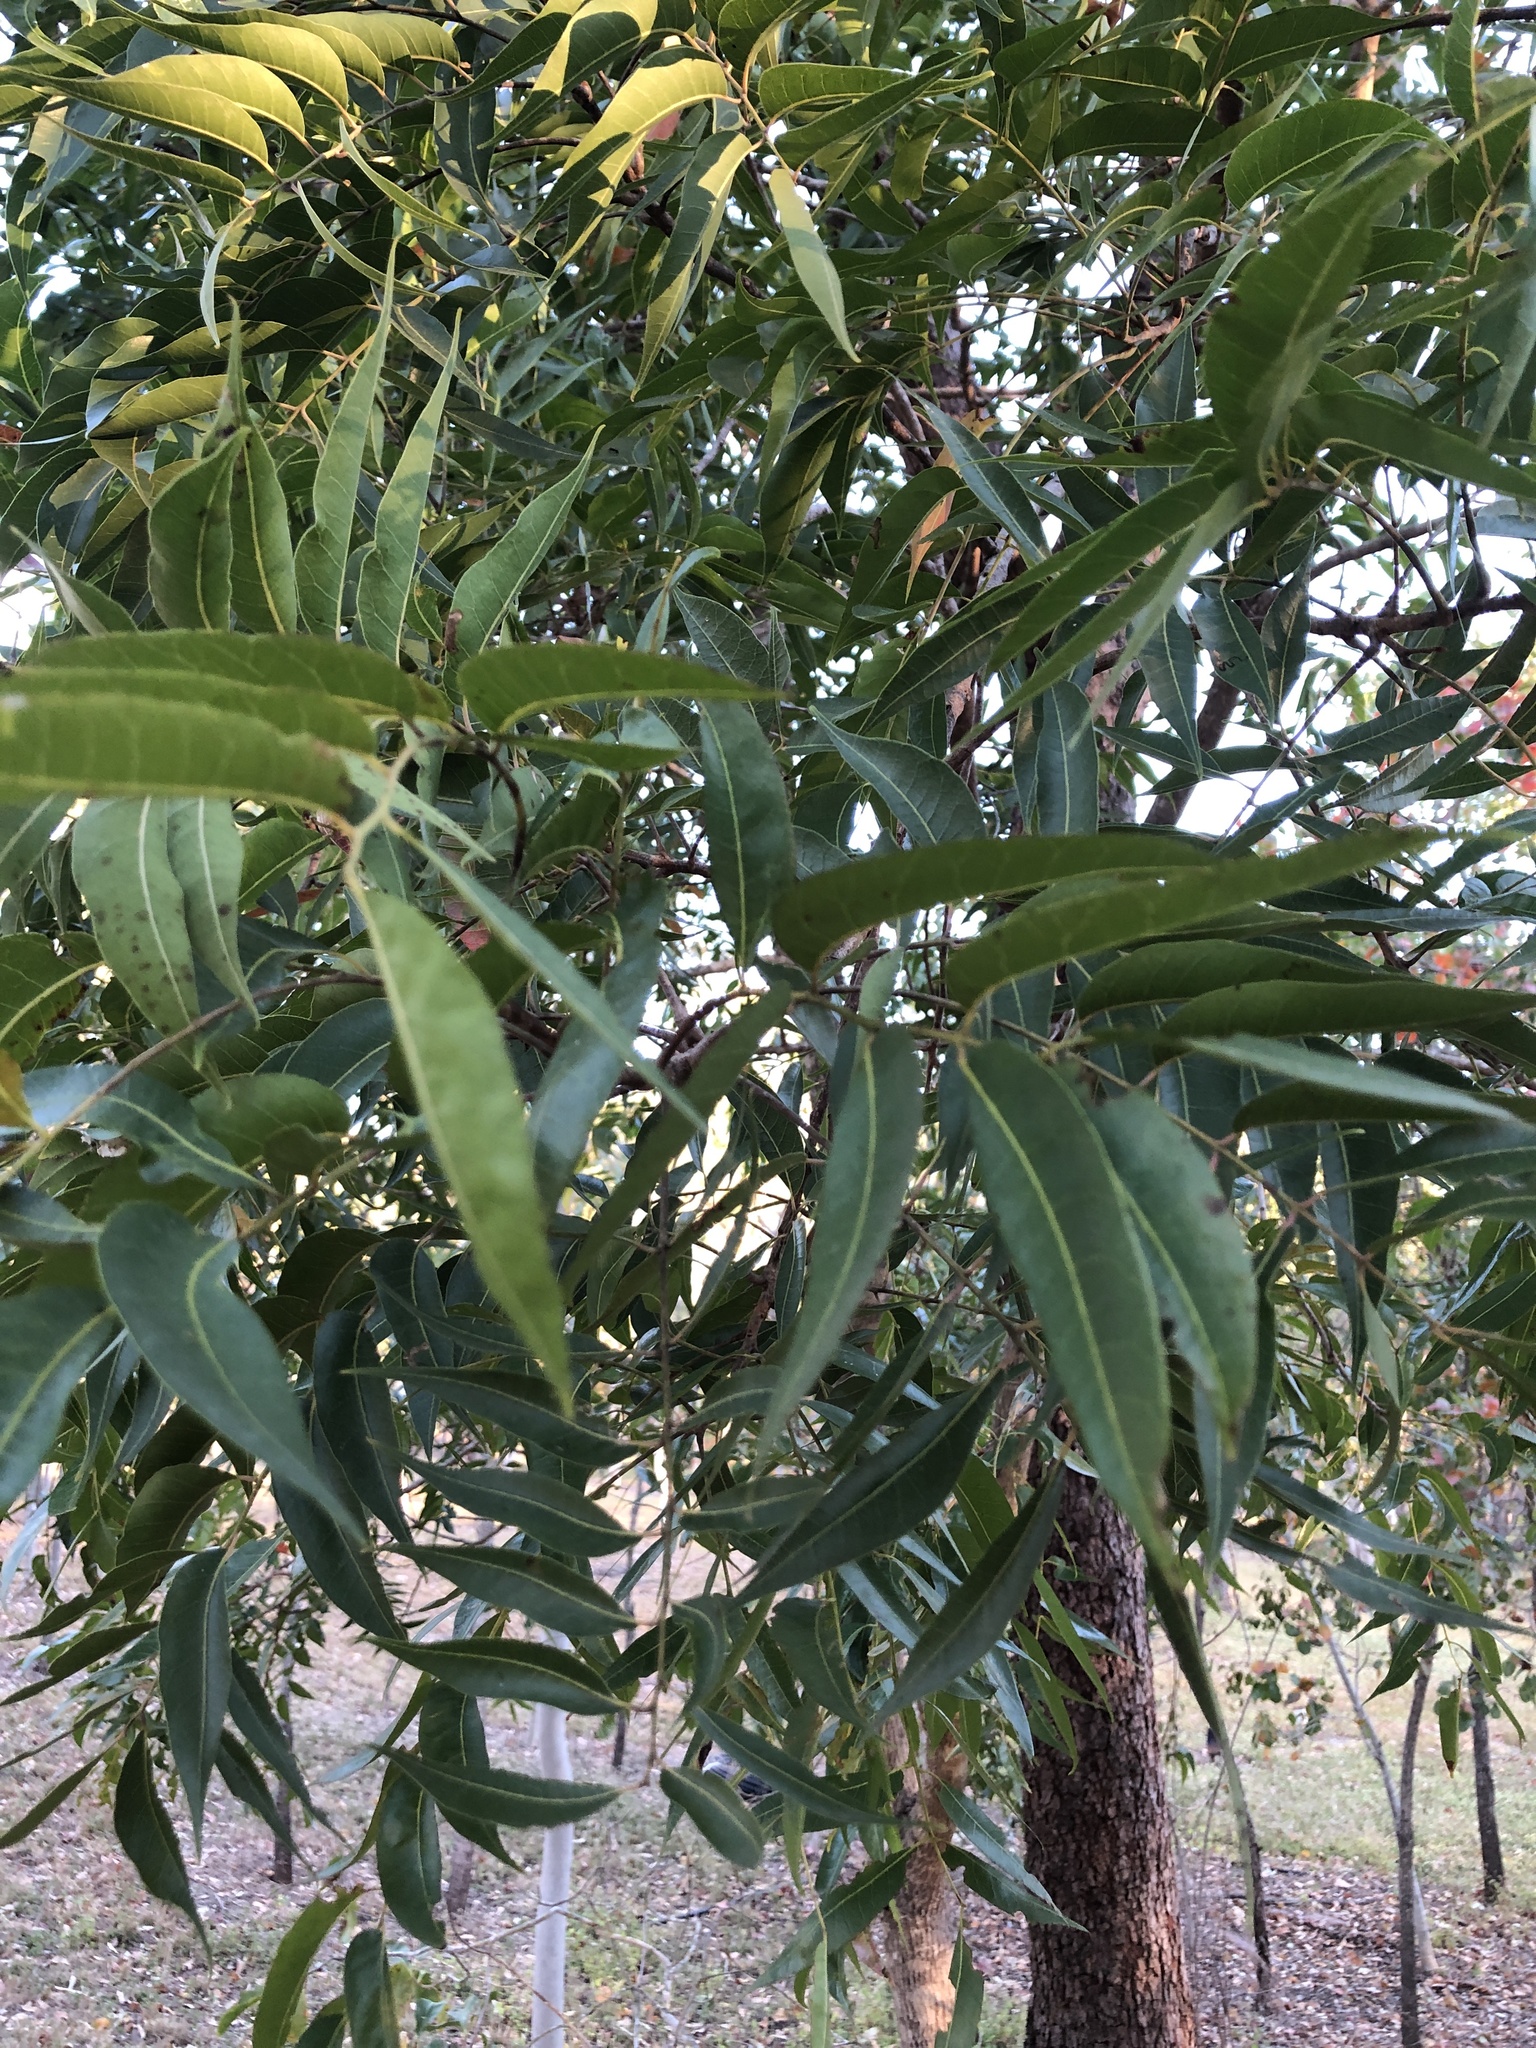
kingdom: Plantae
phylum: Tracheophyta
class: Magnoliopsida
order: Sapindales
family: Anacardiaceae
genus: Euroschinus
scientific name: Euroschinus falcatus
